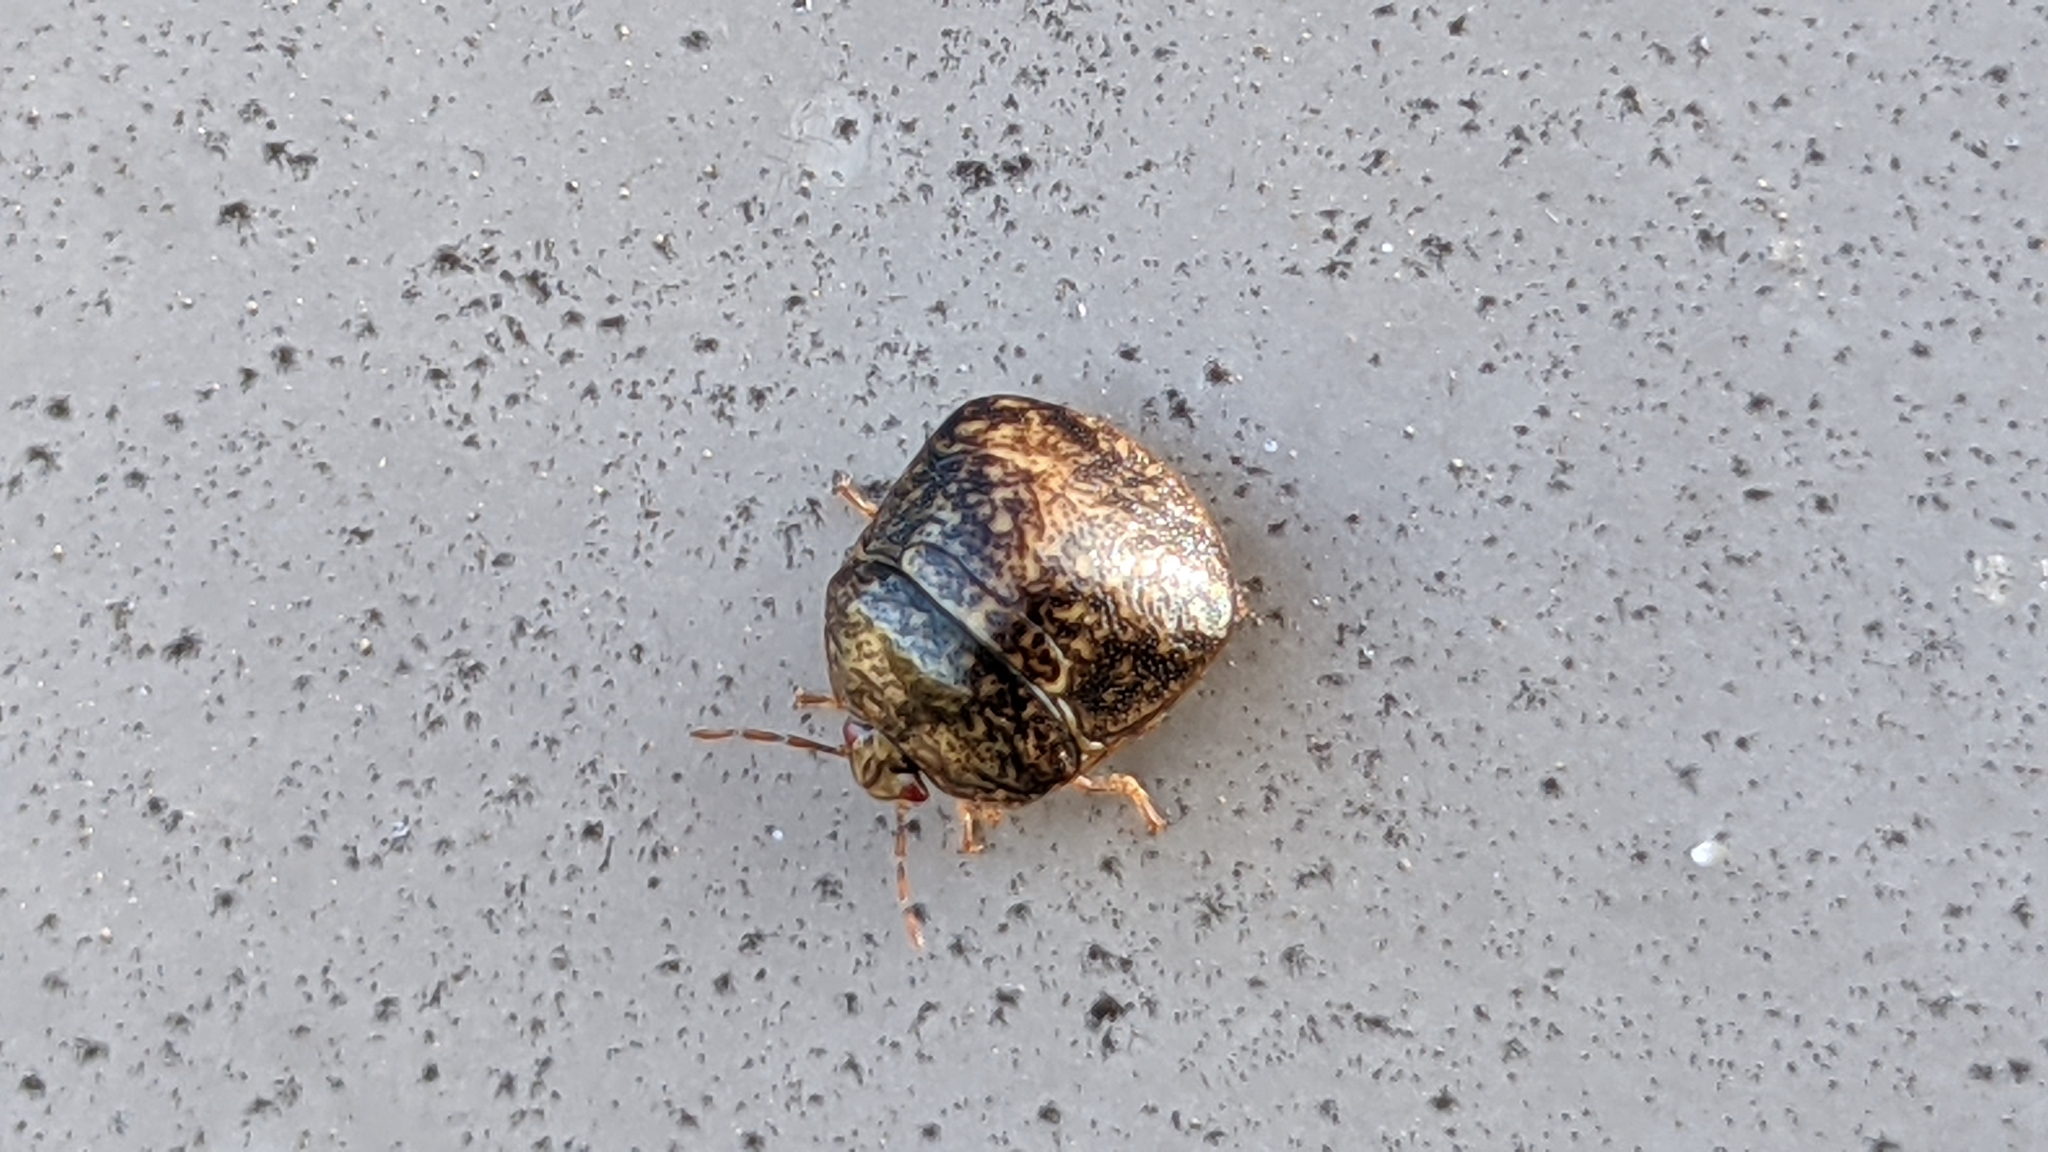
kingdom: Animalia
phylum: Arthropoda
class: Insecta
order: Hemiptera
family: Plataspidae
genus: Megacopta
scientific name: Megacopta cribraria
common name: Bean plataspid
